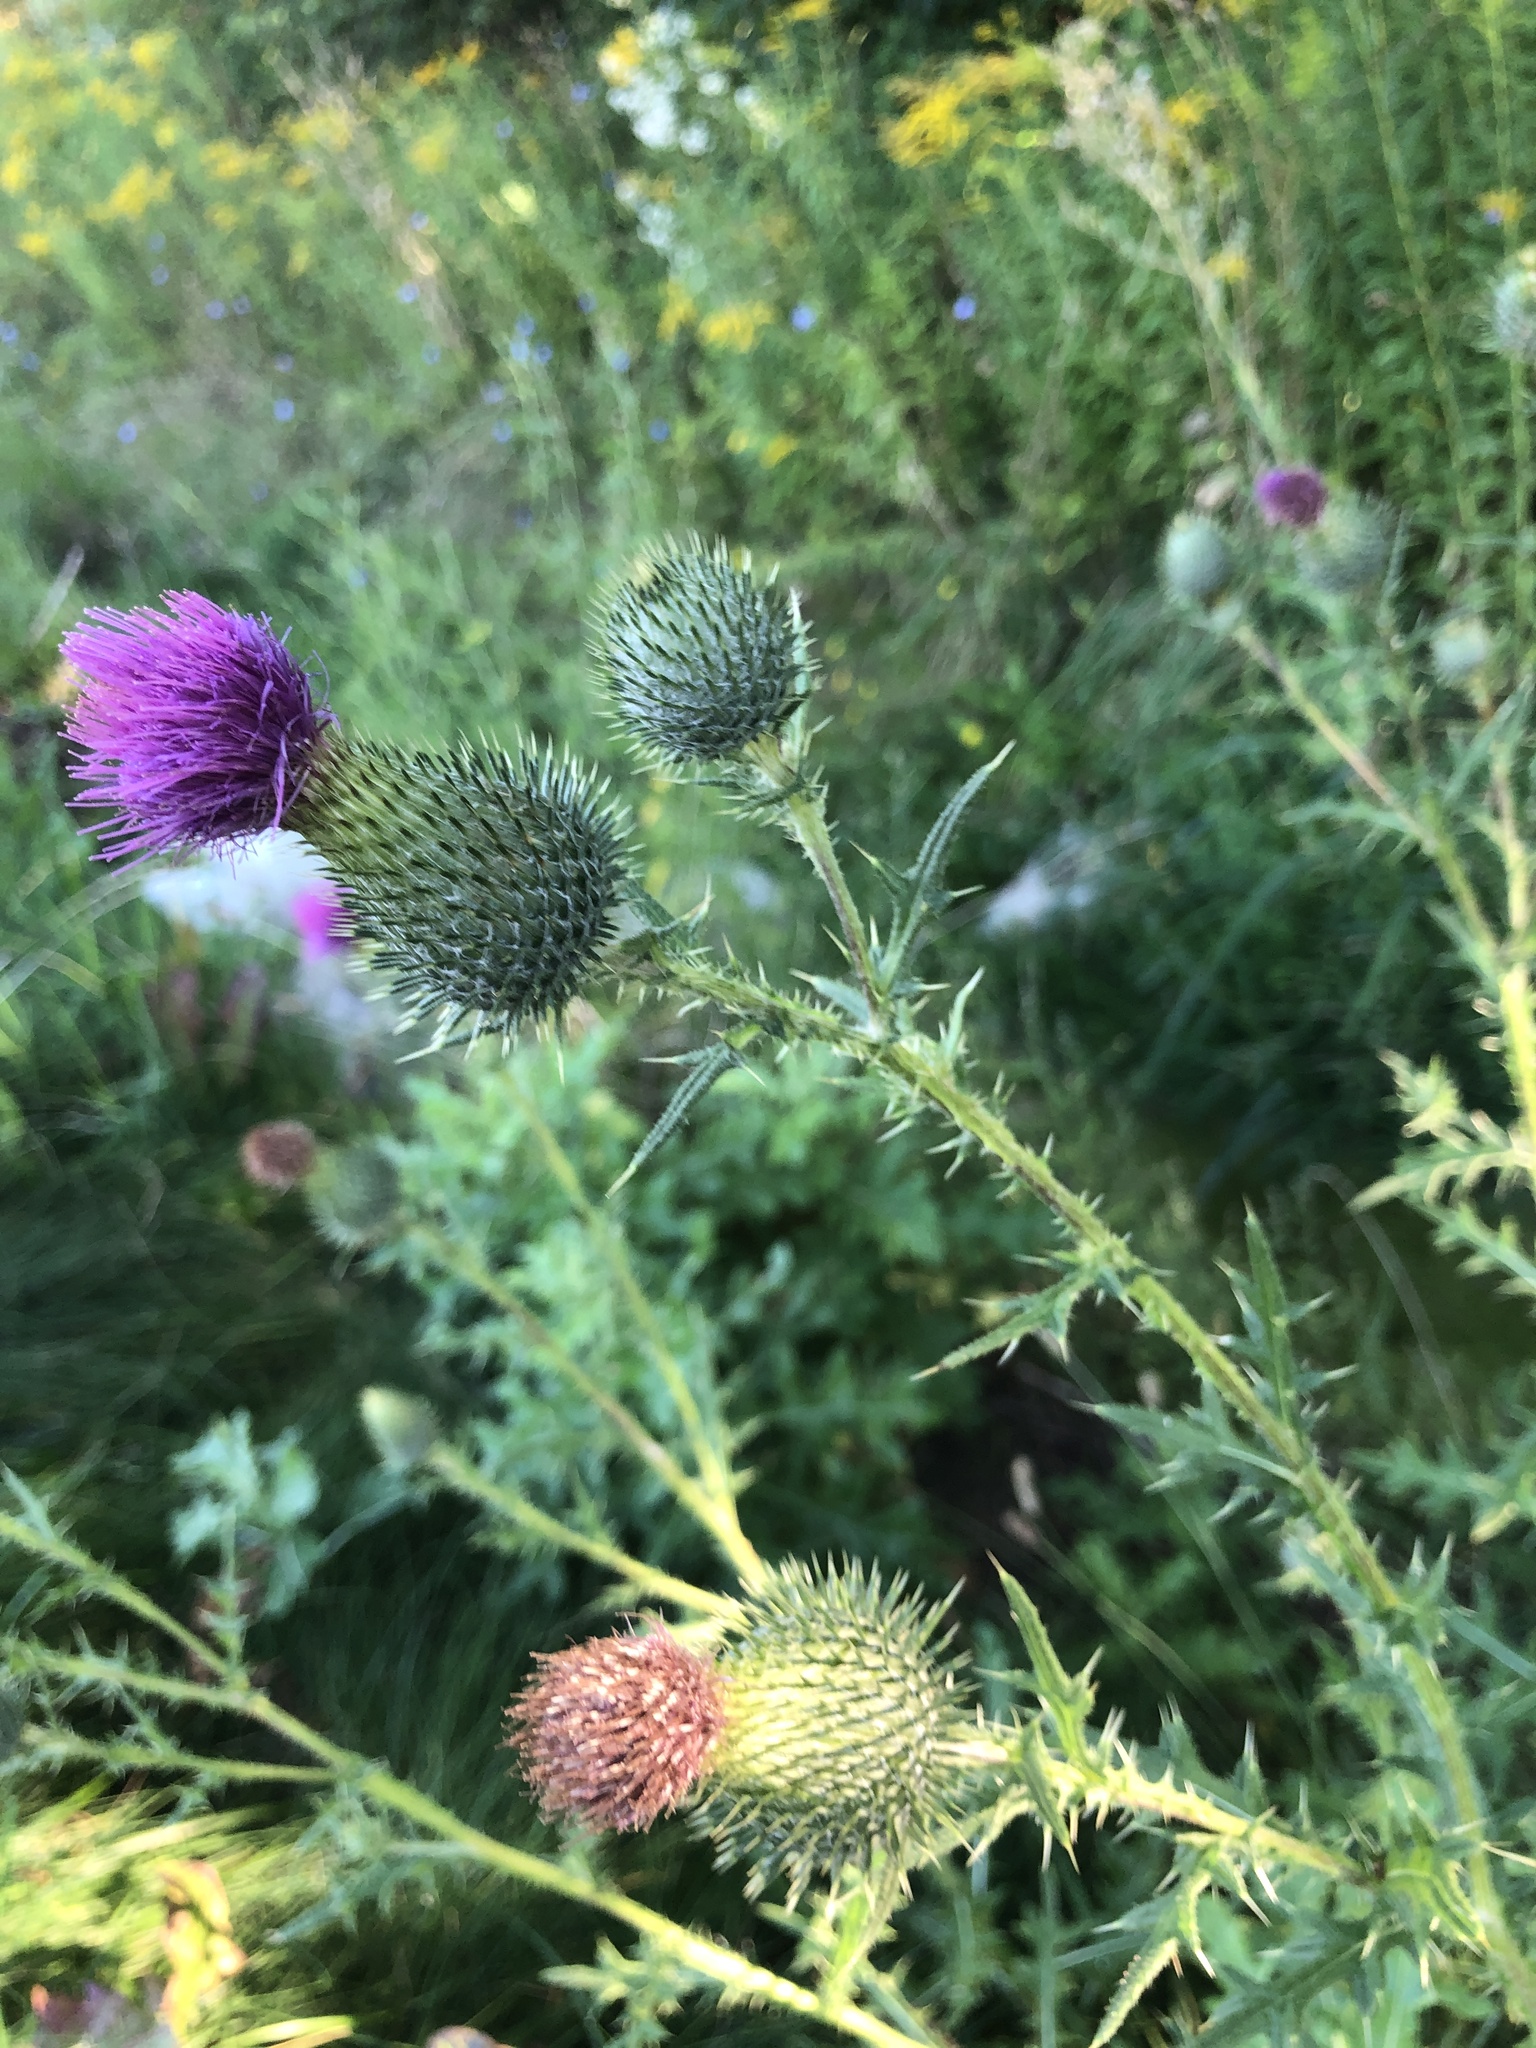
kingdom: Plantae
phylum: Tracheophyta
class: Magnoliopsida
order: Asterales
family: Asteraceae
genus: Cirsium
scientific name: Cirsium vulgare
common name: Bull thistle
